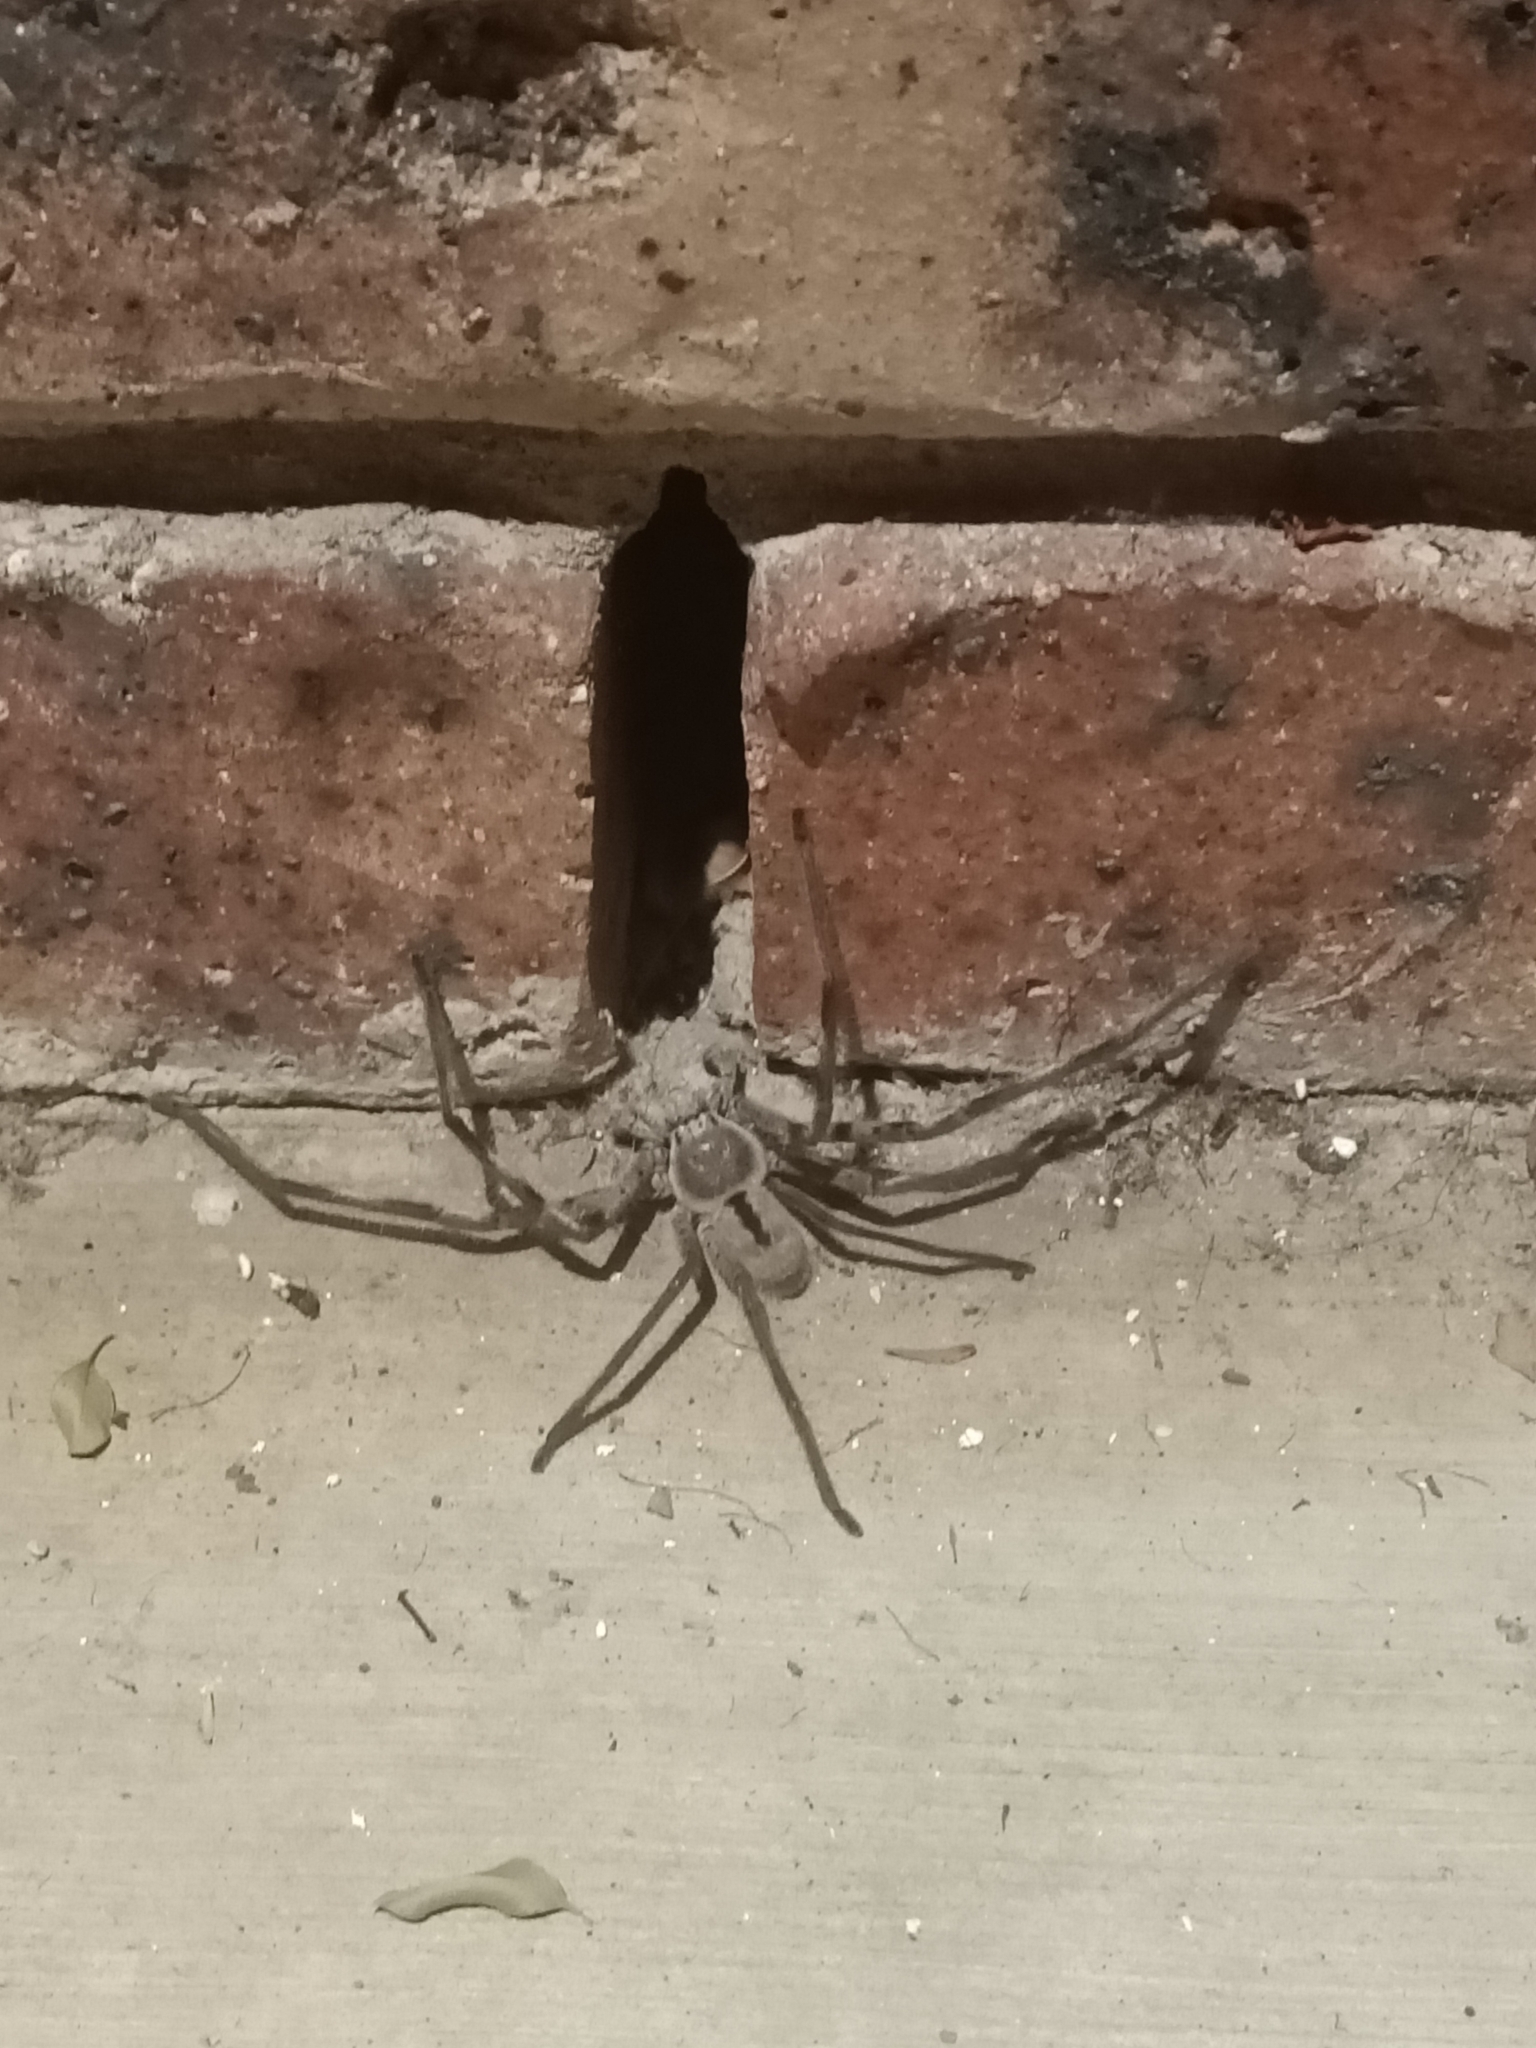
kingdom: Animalia
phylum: Arthropoda
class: Arachnida
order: Araneae
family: Sparassidae
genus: Holconia
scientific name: Holconia immanis
